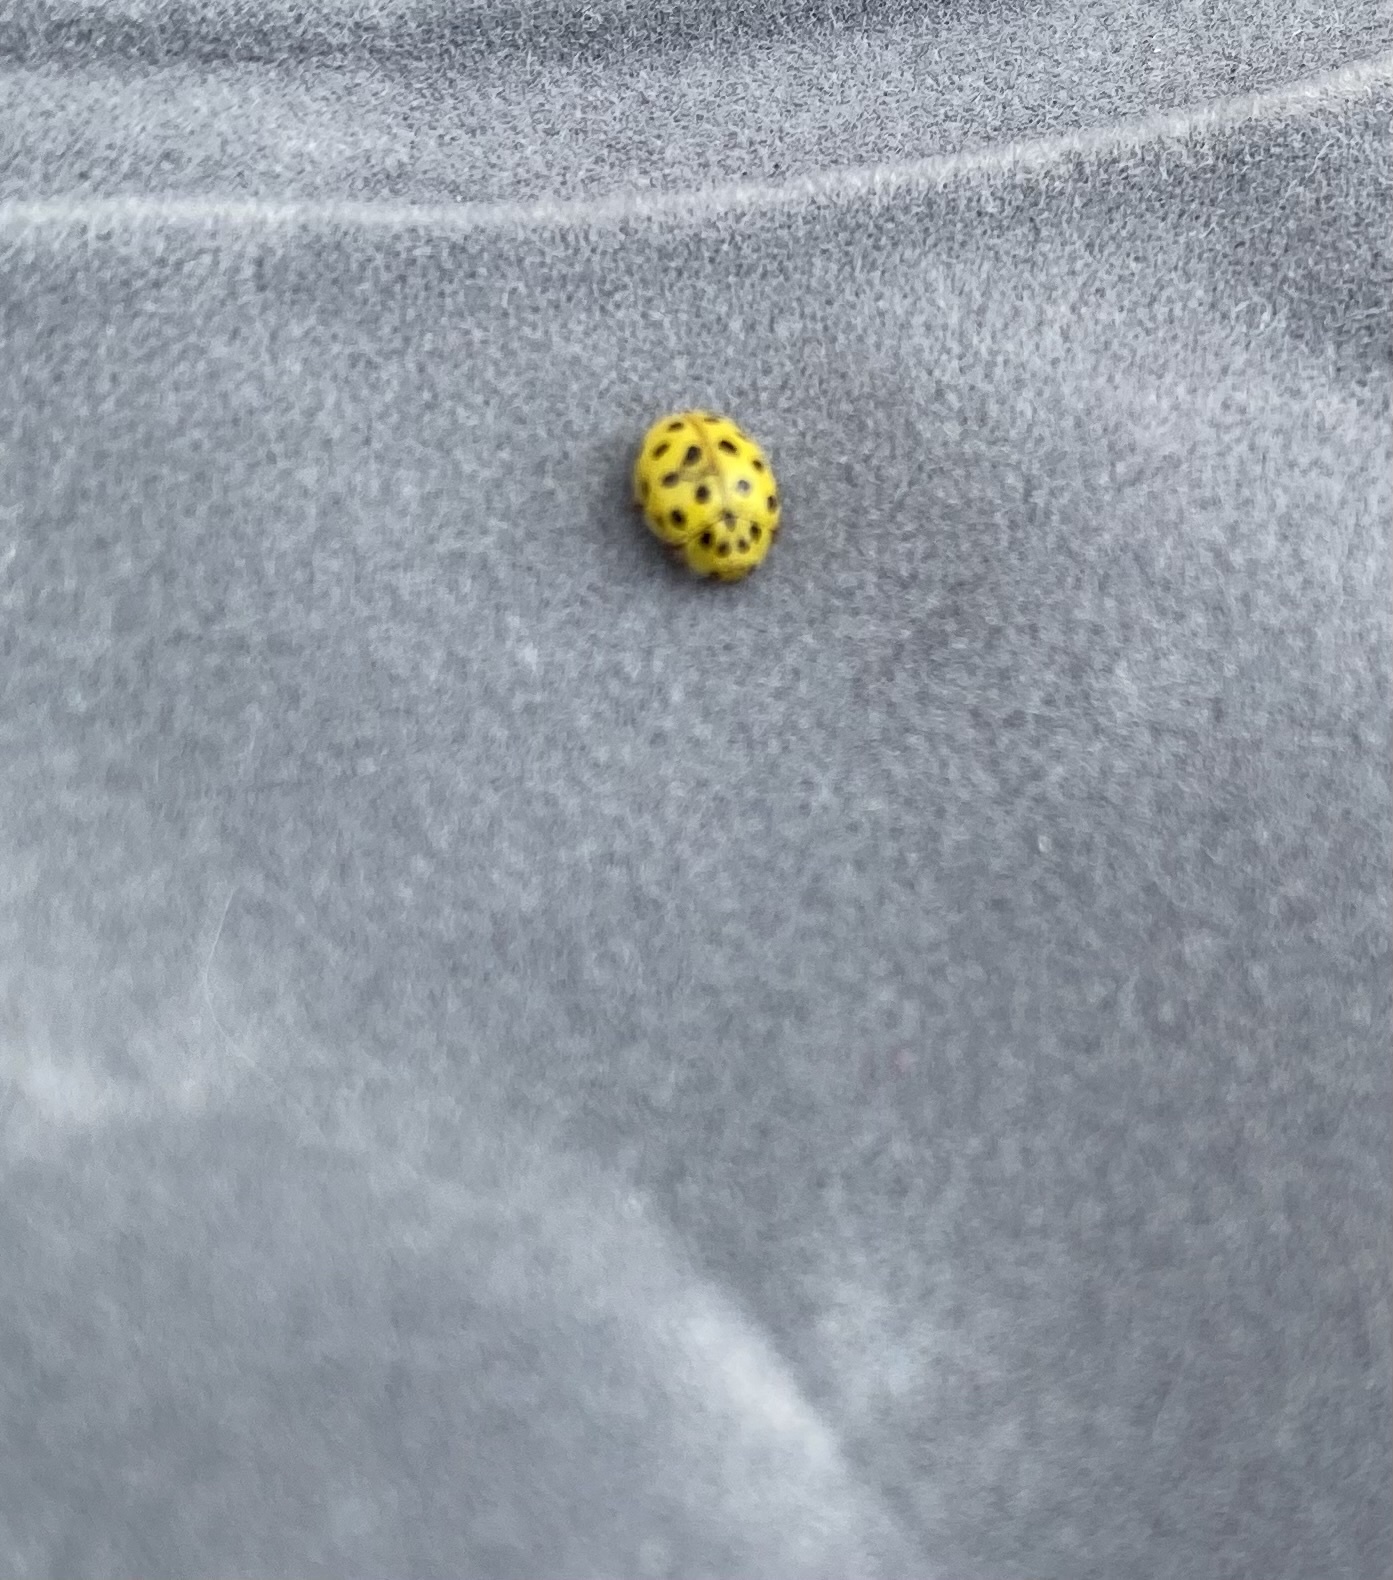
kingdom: Animalia
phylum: Arthropoda
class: Insecta
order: Coleoptera
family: Coccinellidae
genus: Psyllobora
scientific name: Psyllobora vigintiduopunctata
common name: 22-spot ladybird
